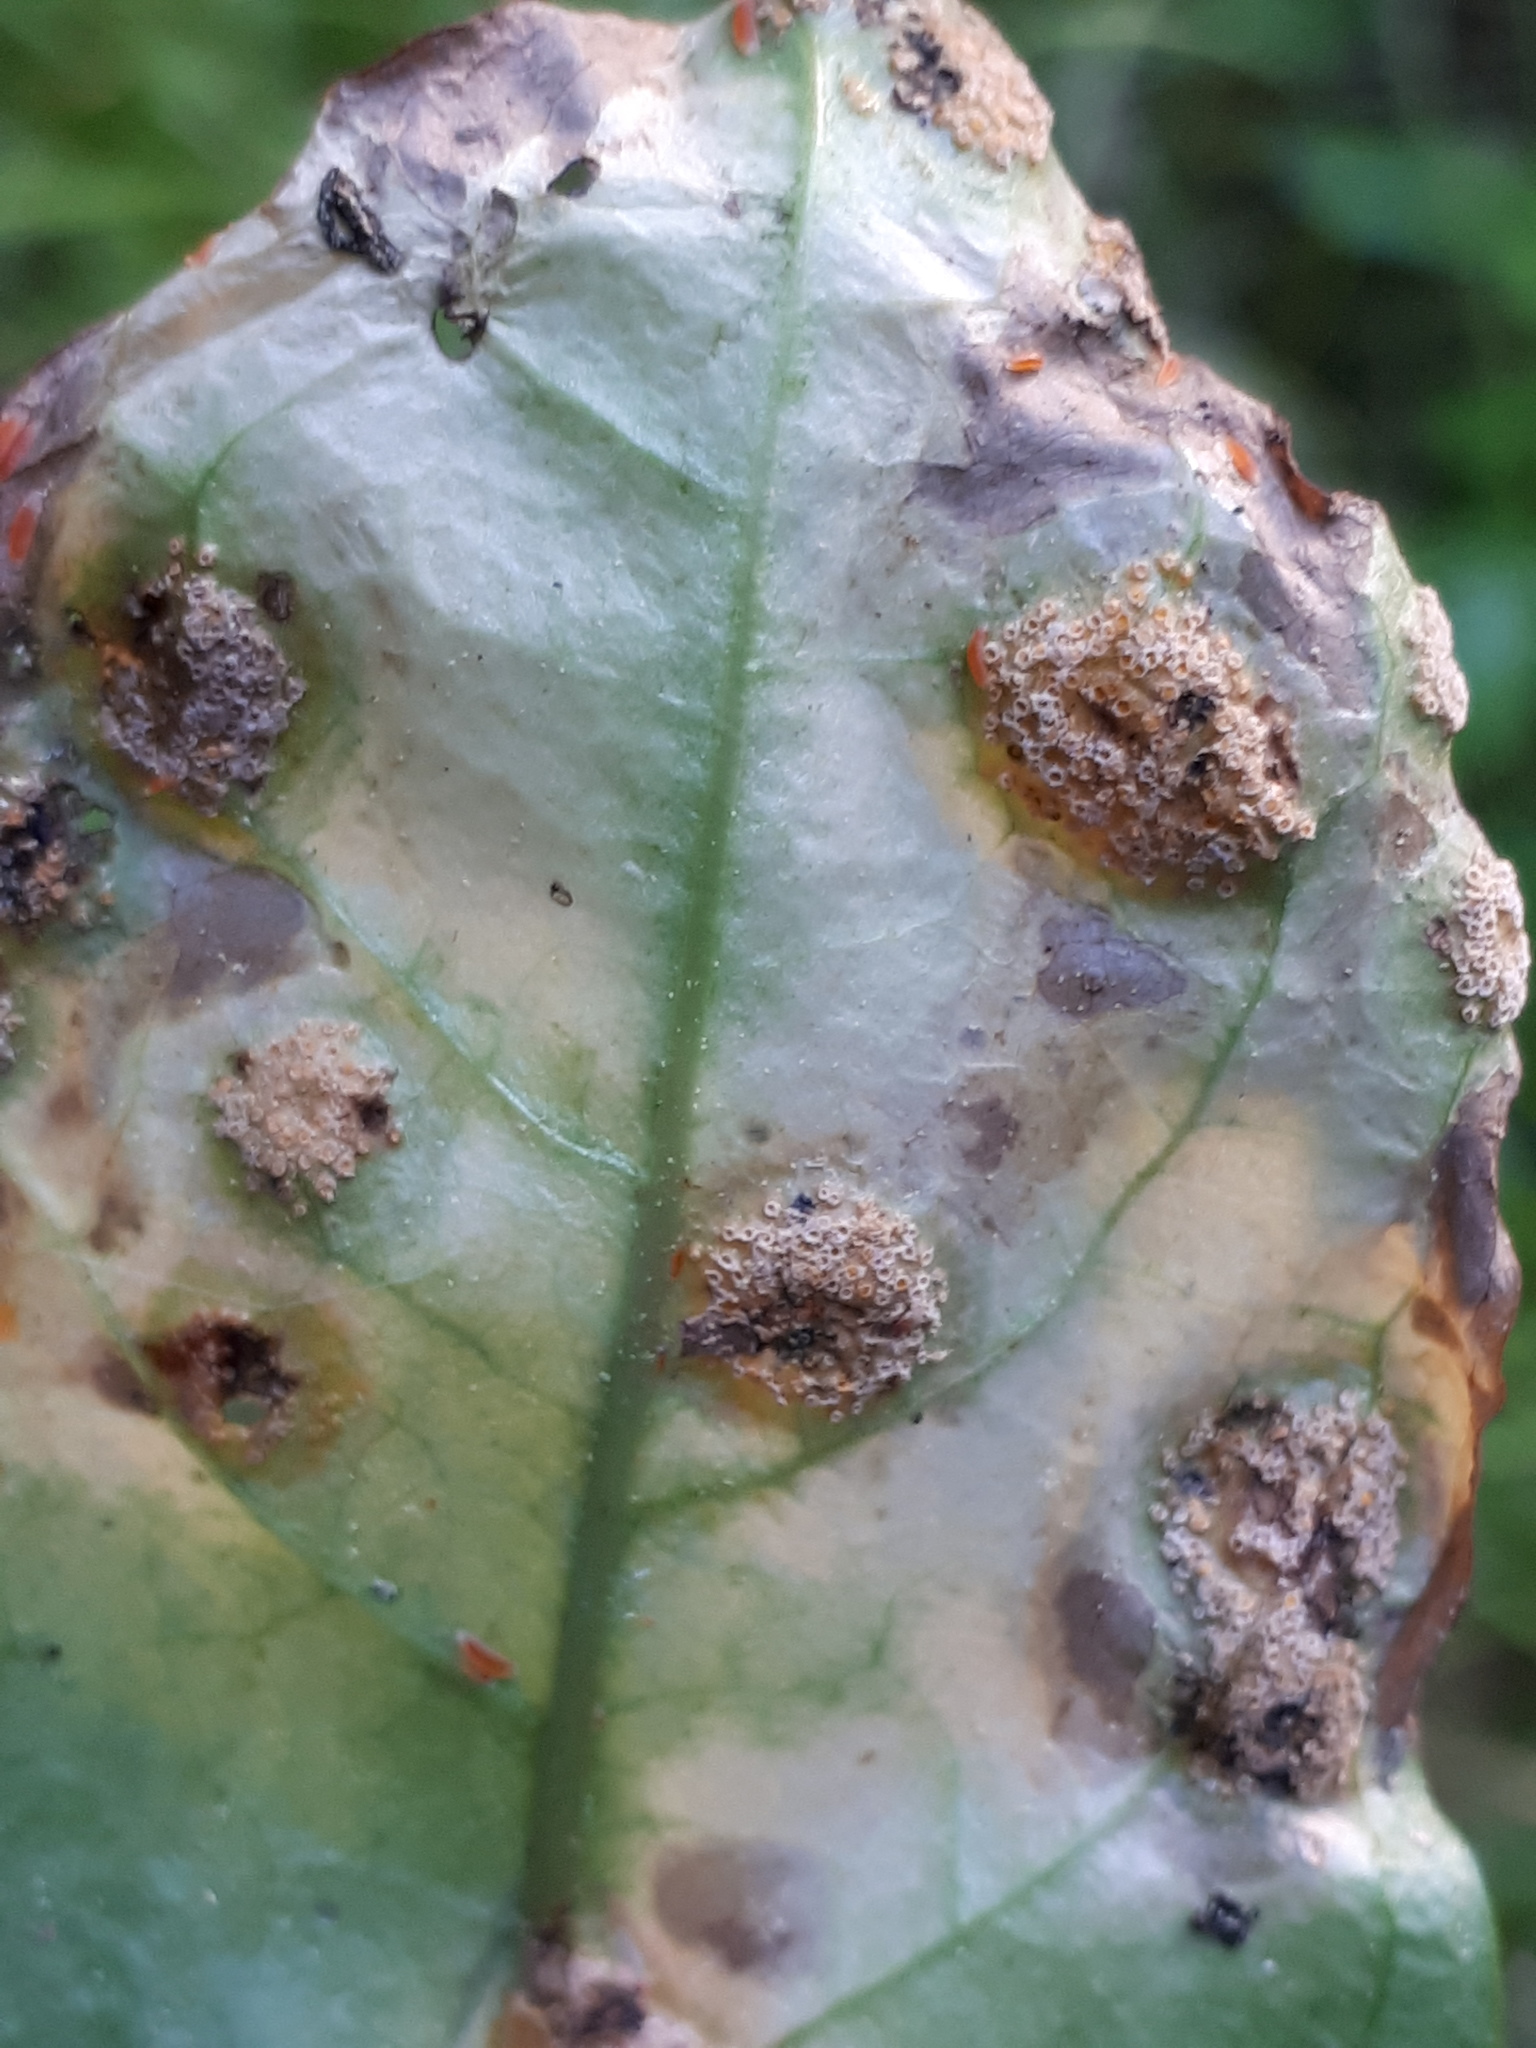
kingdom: Fungi
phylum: Basidiomycota
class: Pucciniomycetes
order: Pucciniales
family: Pucciniaceae
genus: Puccinia
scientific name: Puccinia dioicae
